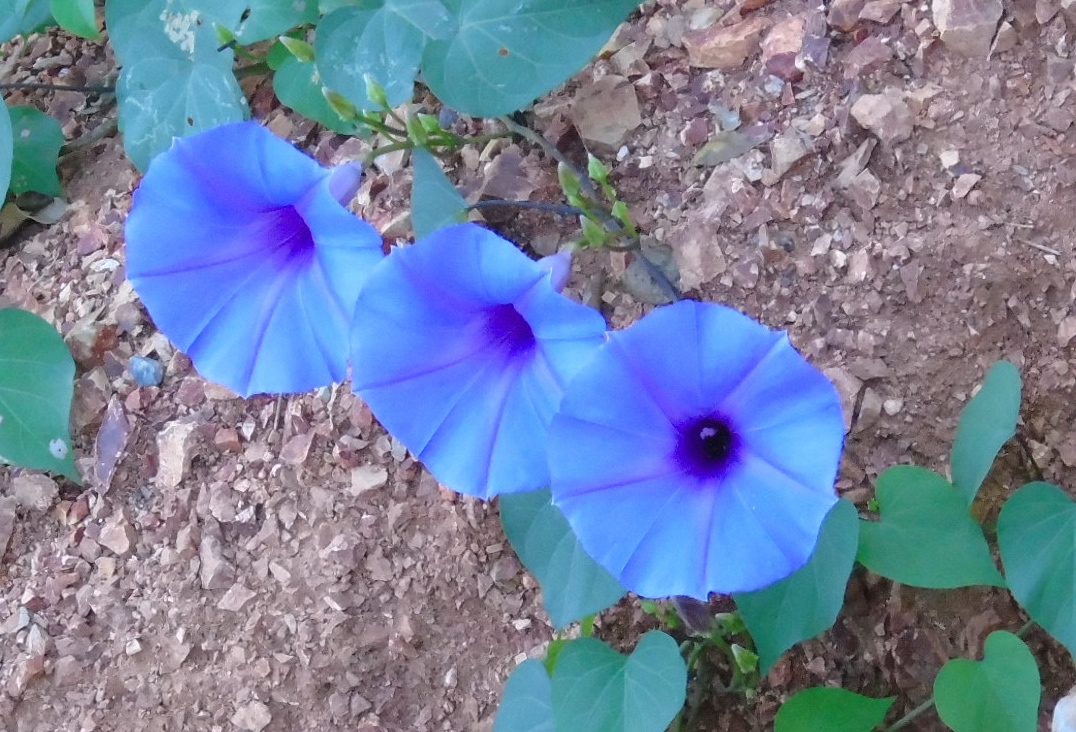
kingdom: Plantae
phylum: Tracheophyta
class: Magnoliopsida
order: Solanales
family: Convolvulaceae
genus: Ipomoea
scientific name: Ipomoea pedicellaris
